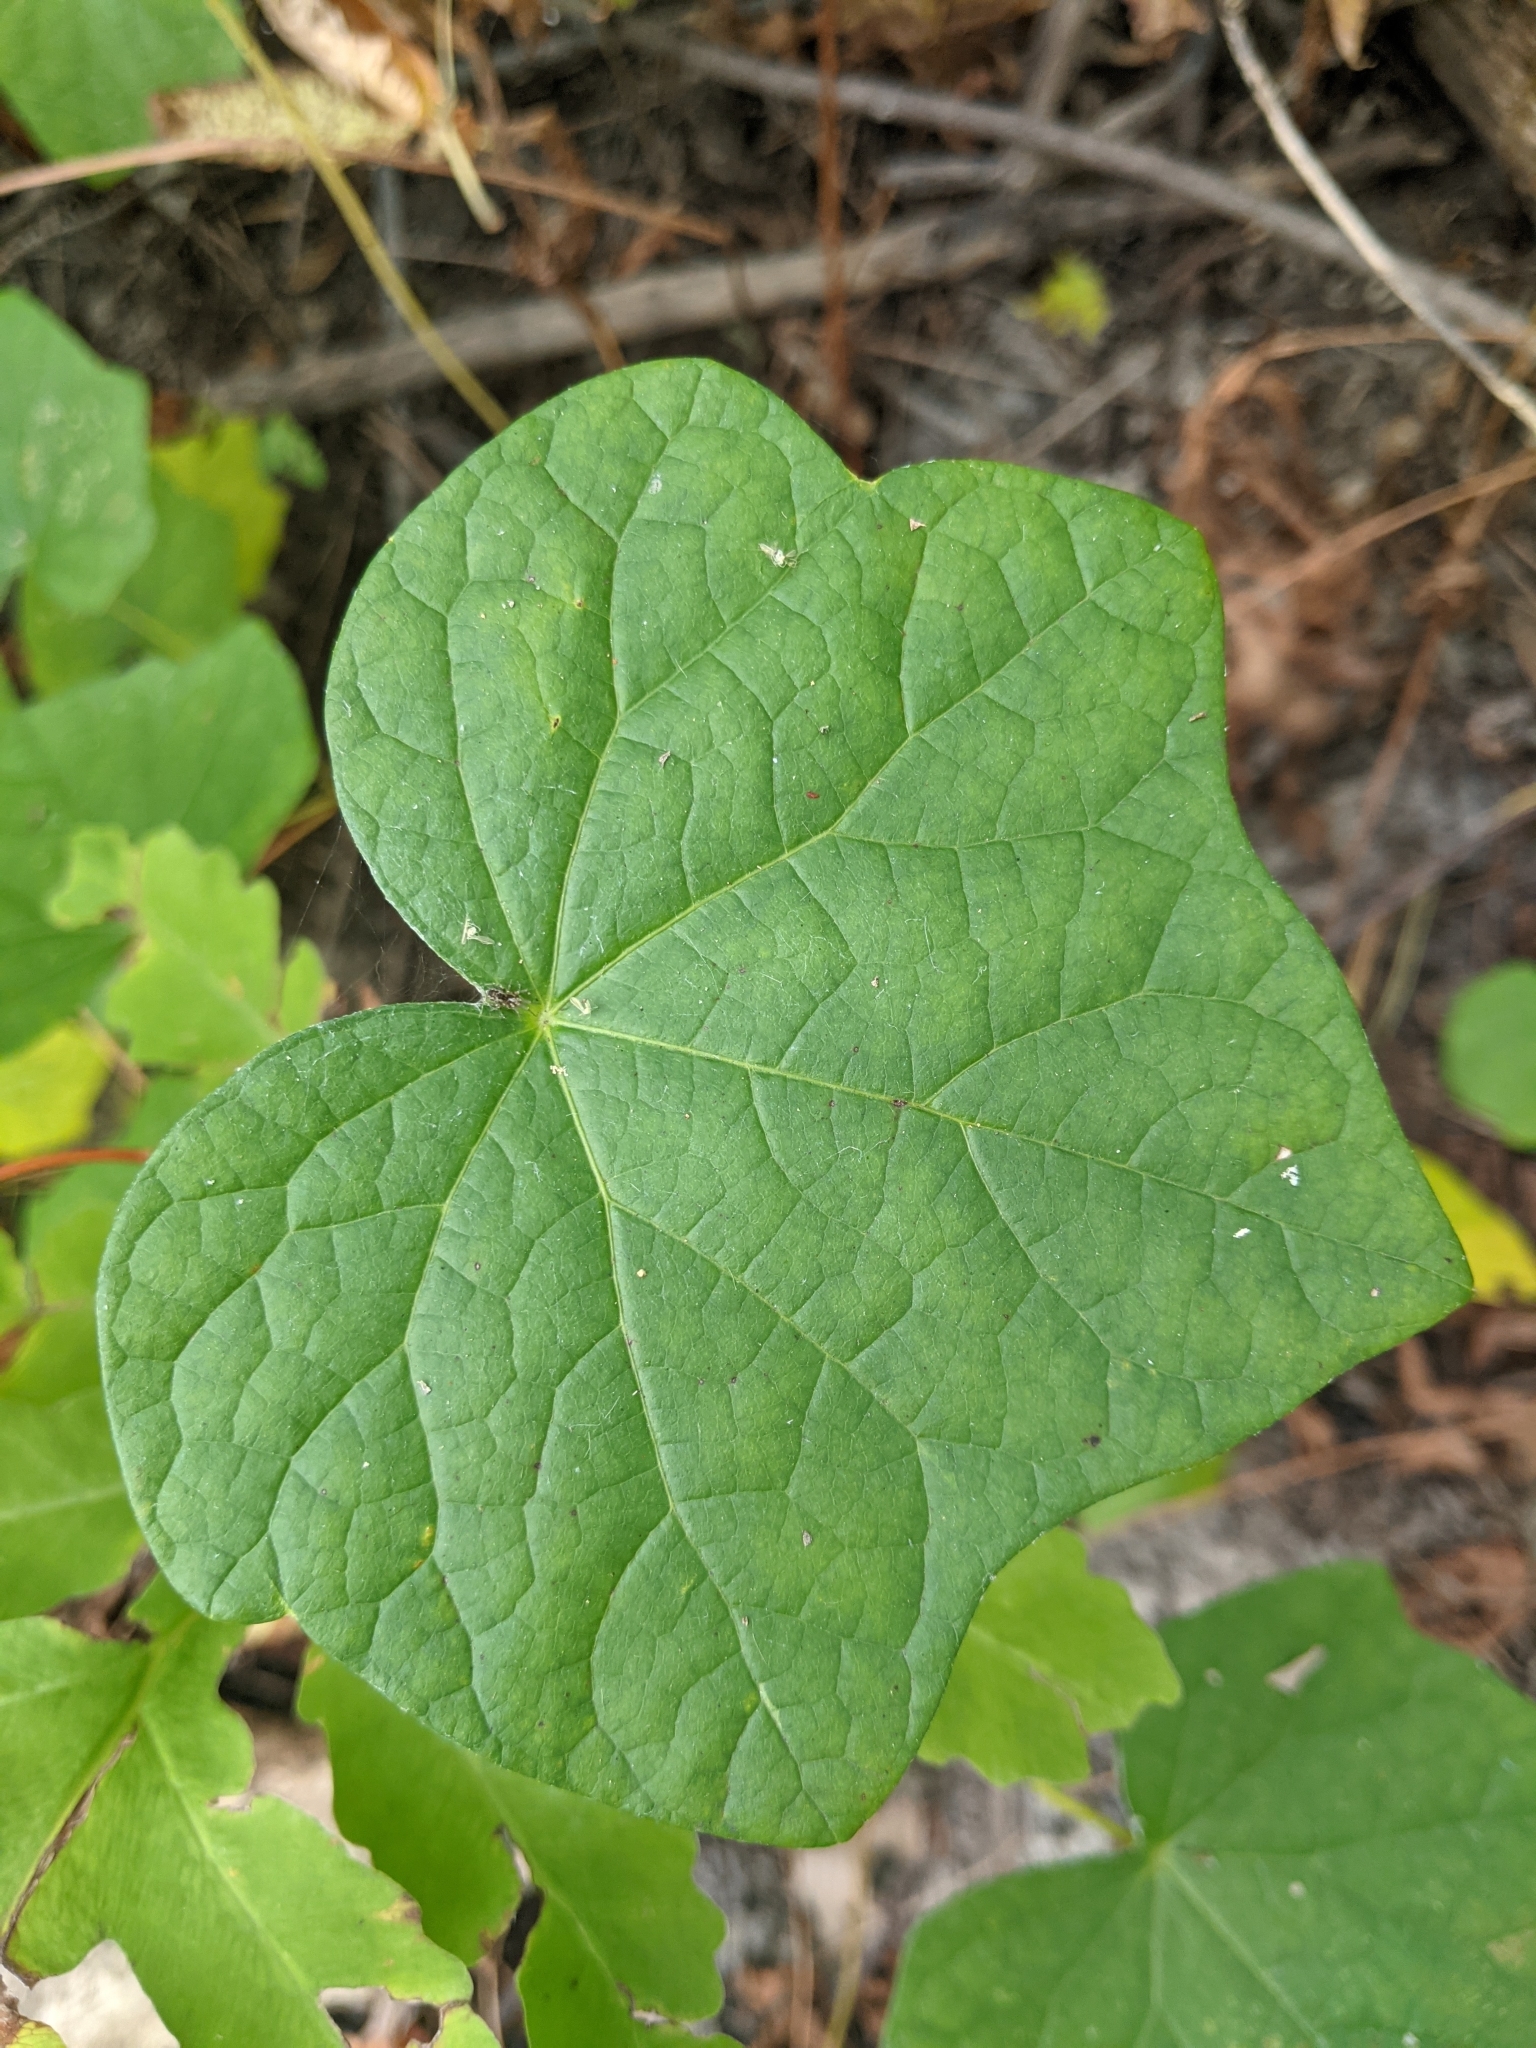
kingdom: Plantae
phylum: Tracheophyta
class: Magnoliopsida
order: Ranunculales
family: Menispermaceae
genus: Menispermum
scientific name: Menispermum canadense
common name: Moonseed
